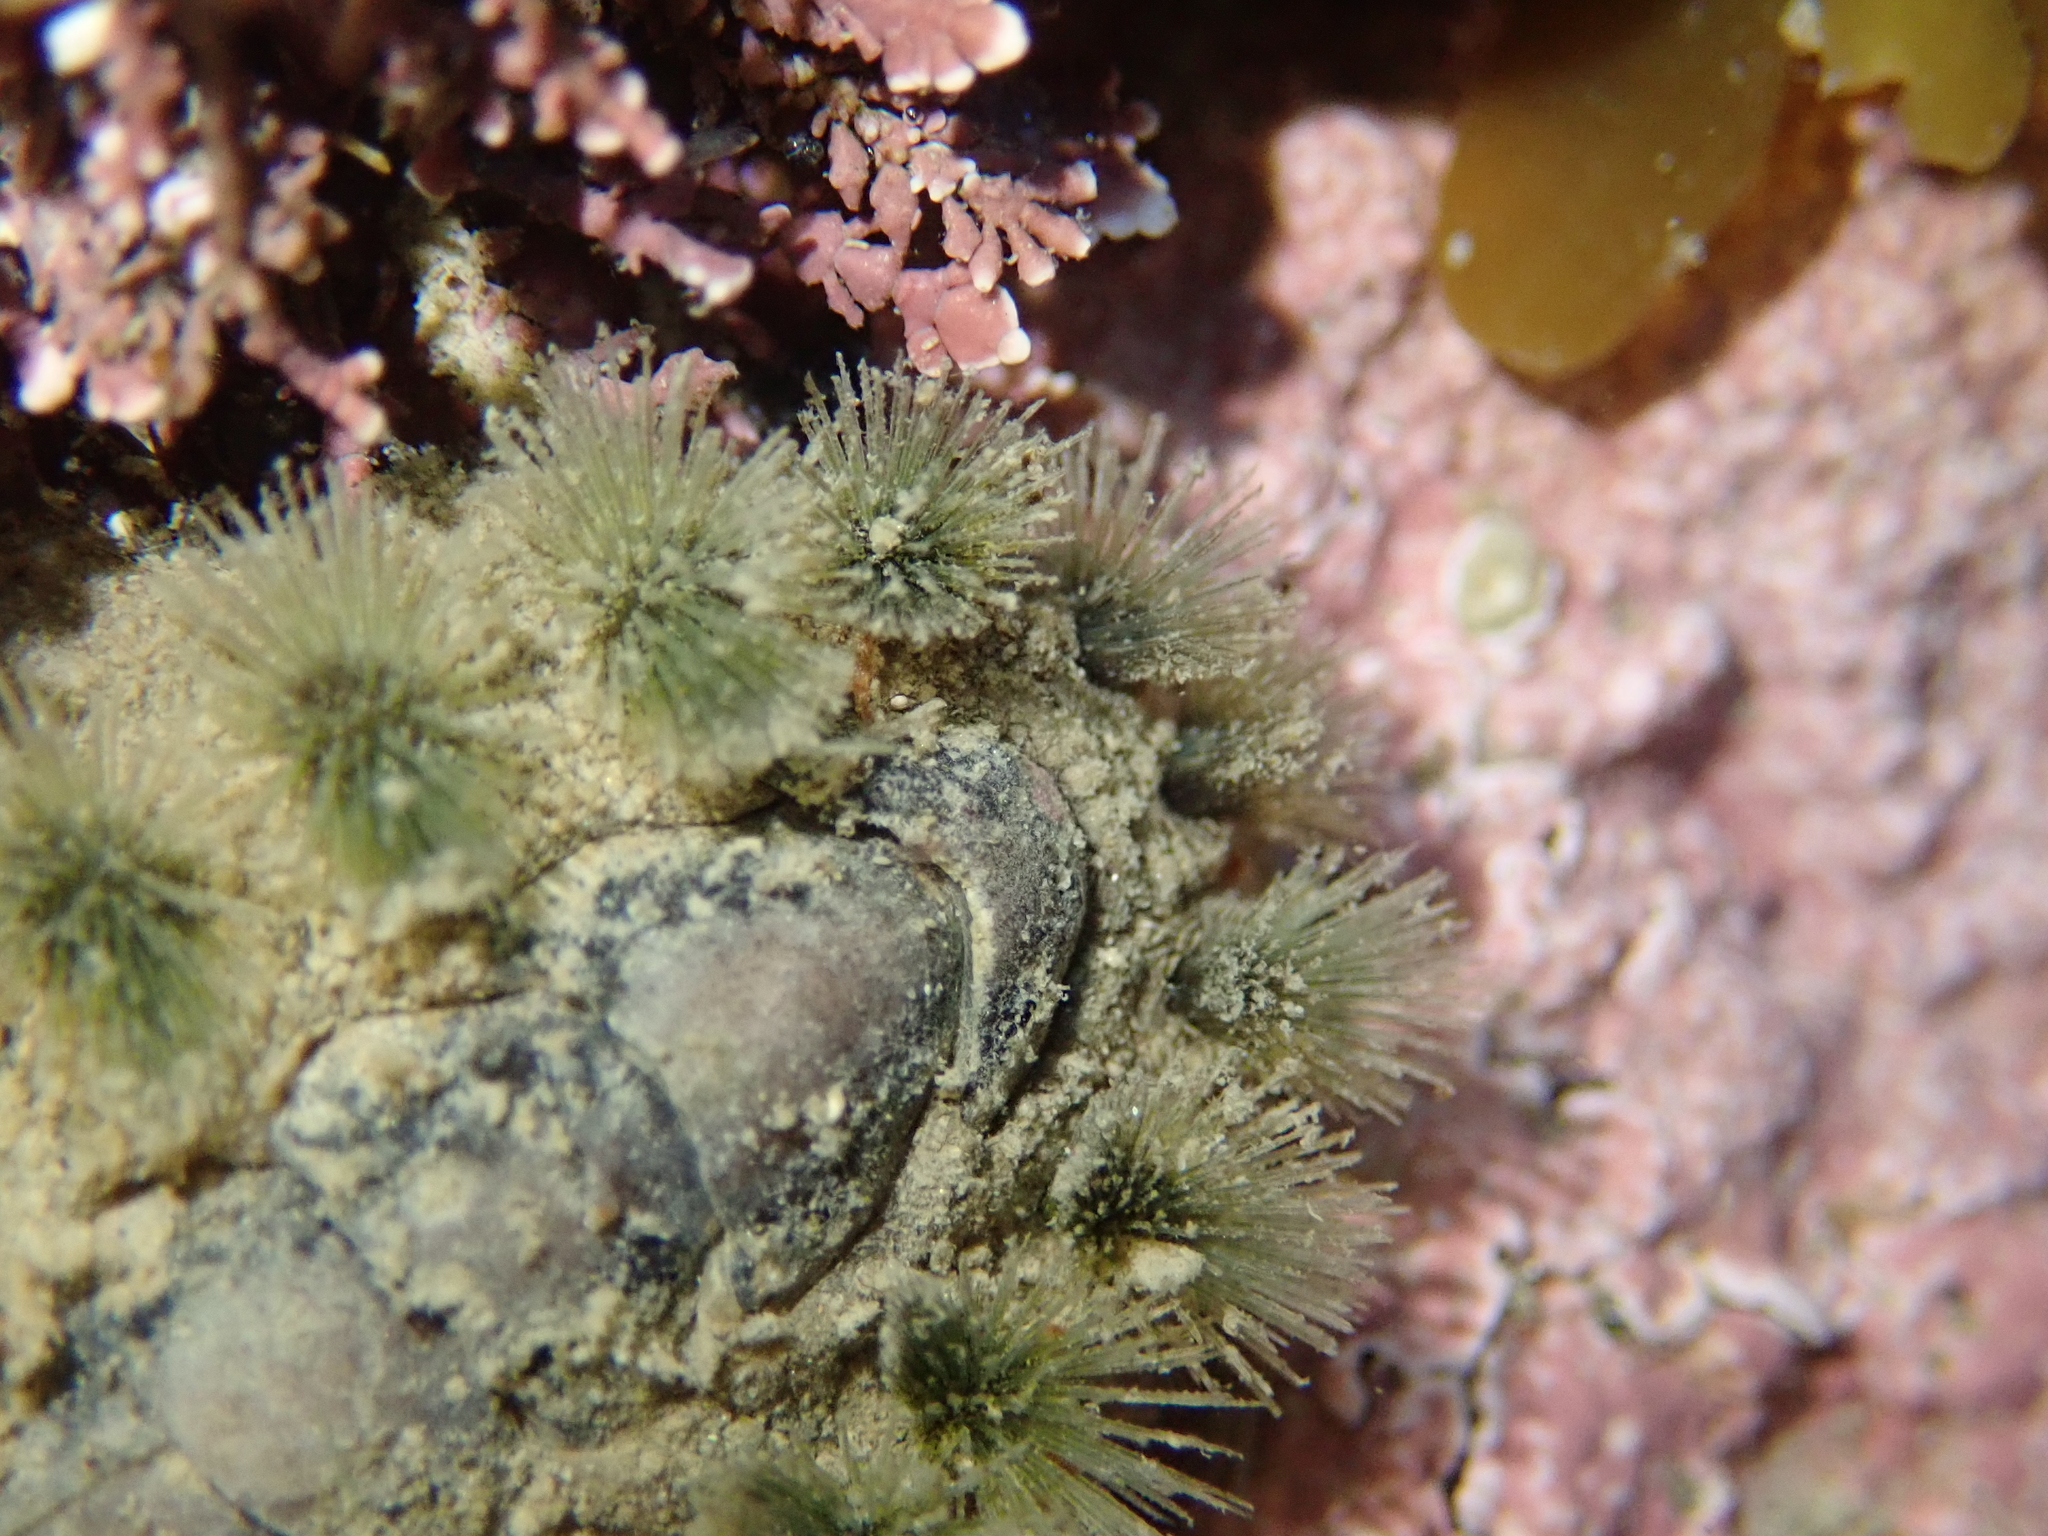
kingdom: Animalia
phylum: Mollusca
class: Polyplacophora
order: Chitonida
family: Acanthochitonidae
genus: Acanthochitona
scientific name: Acanthochitona zelandica
